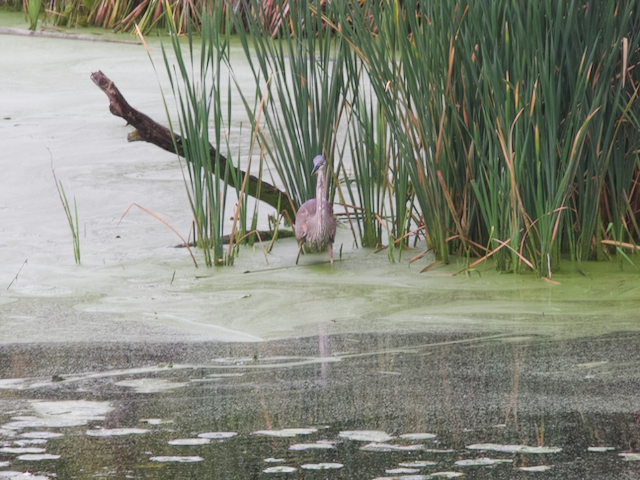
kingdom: Animalia
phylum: Chordata
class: Aves
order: Pelecaniformes
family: Ardeidae
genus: Ardea
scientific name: Ardea herodias
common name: Great blue heron
